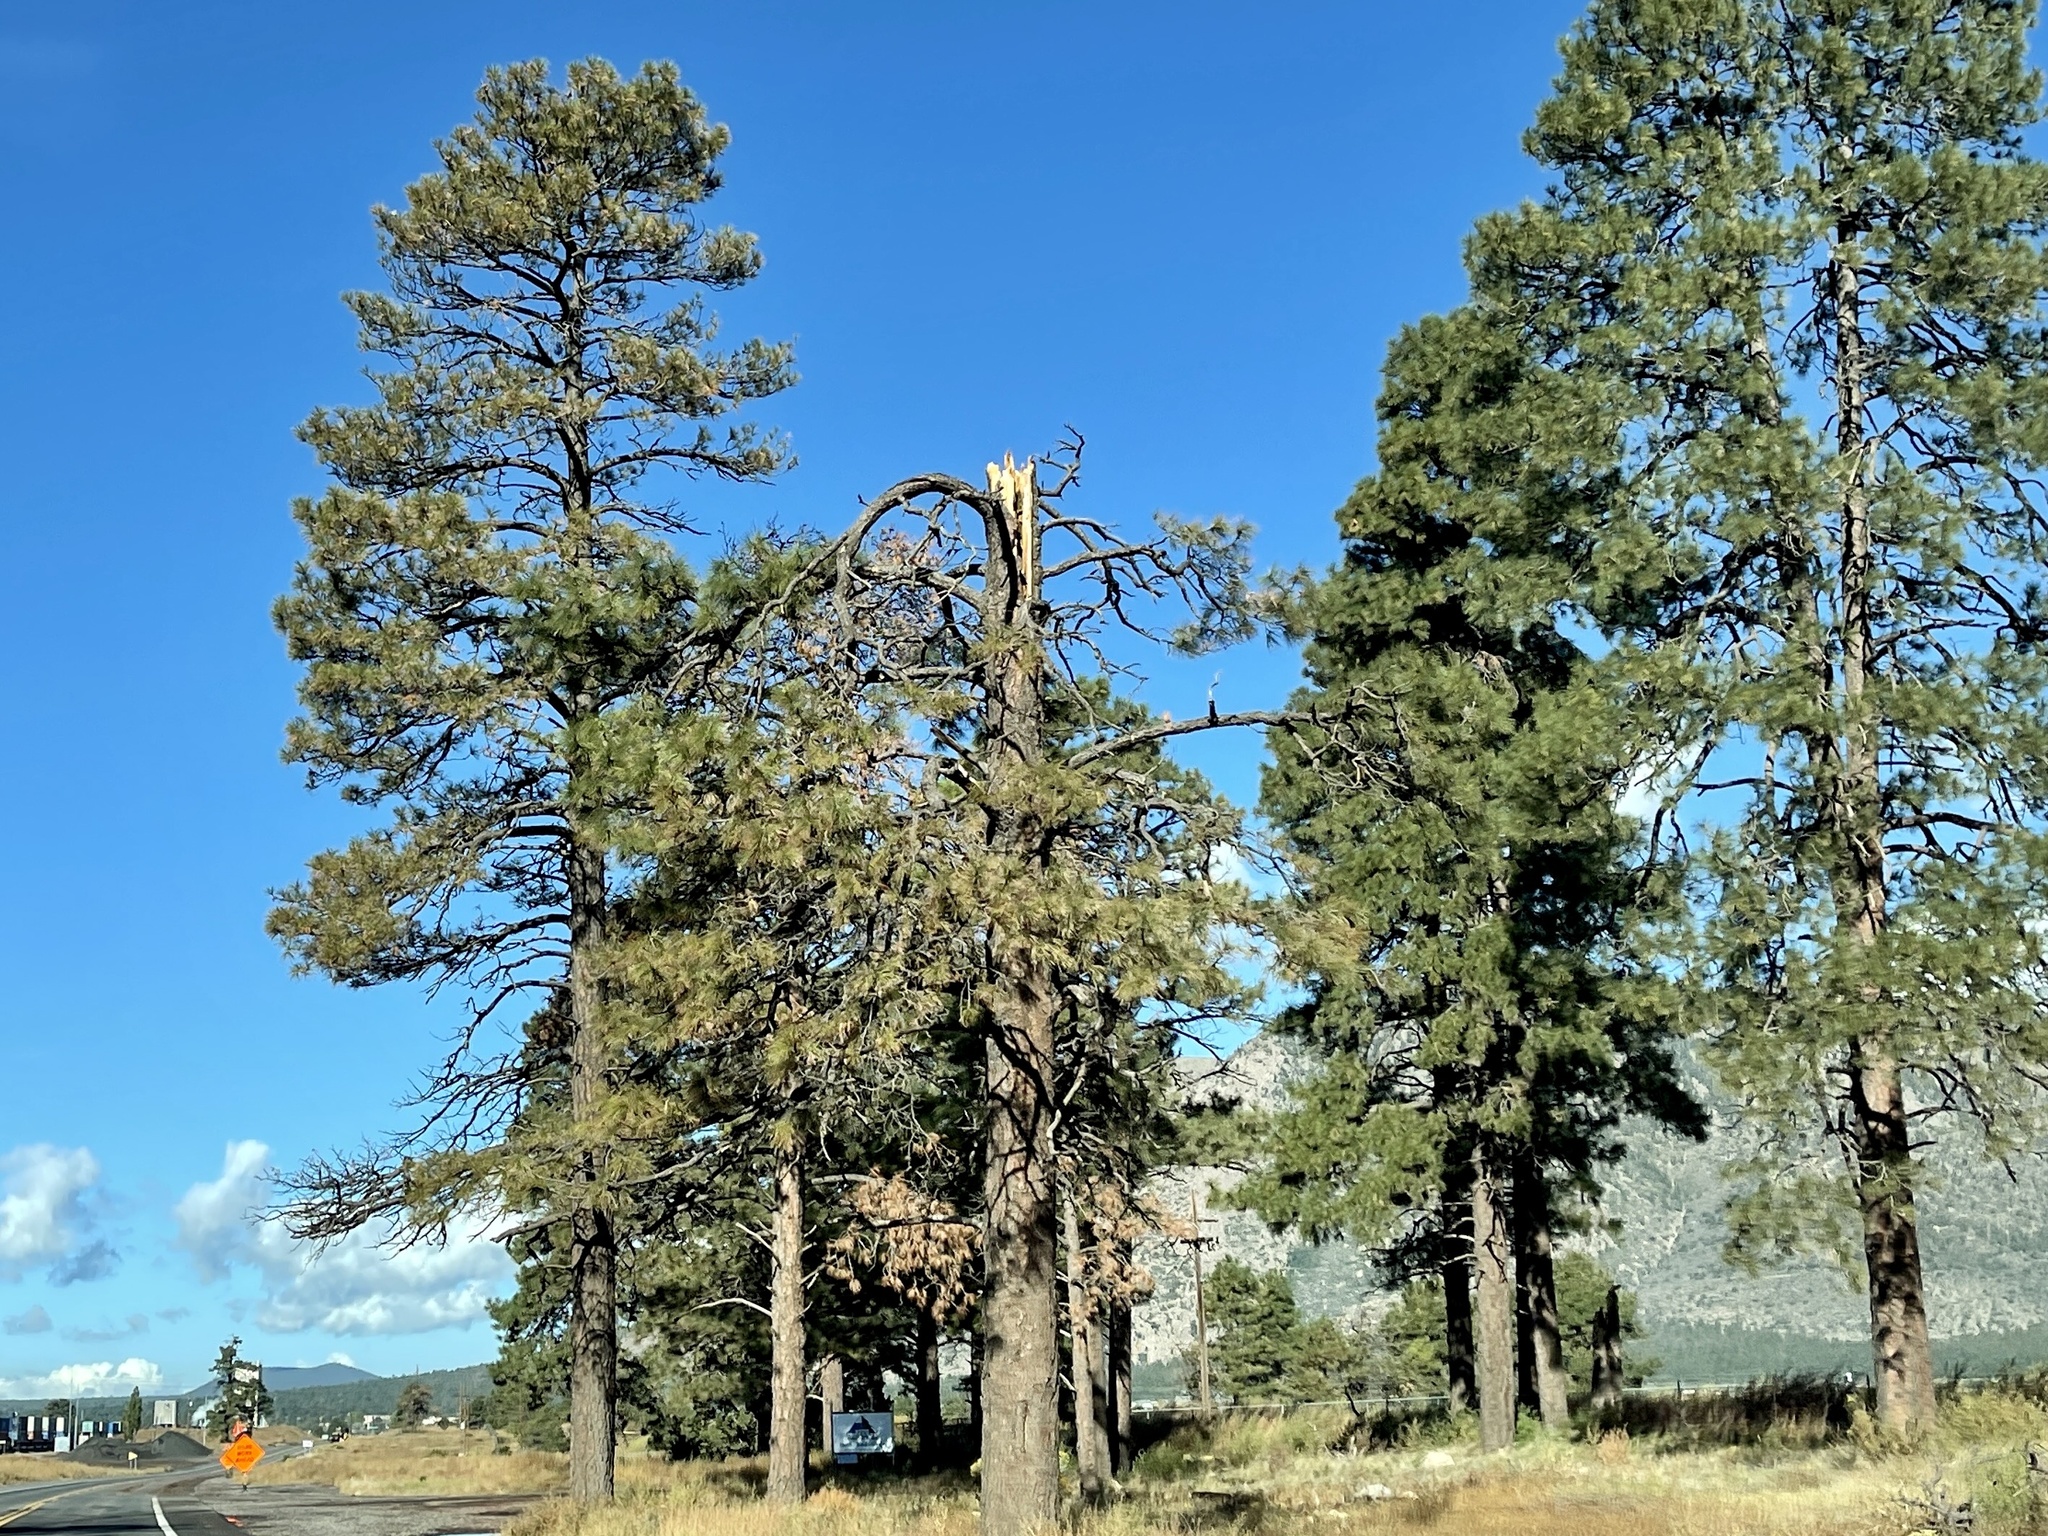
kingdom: Plantae
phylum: Tracheophyta
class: Pinopsida
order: Pinales
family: Pinaceae
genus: Pinus
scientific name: Pinus ponderosa
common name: Western yellow-pine
